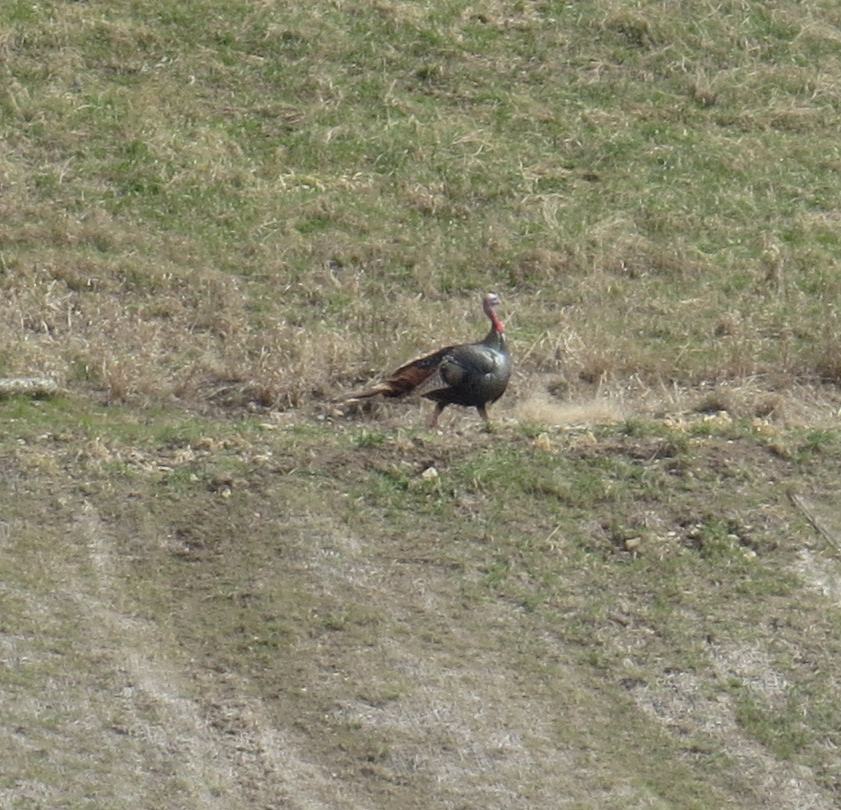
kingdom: Animalia
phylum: Chordata
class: Aves
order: Galliformes
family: Phasianidae
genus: Meleagris
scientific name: Meleagris gallopavo
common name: Wild turkey
